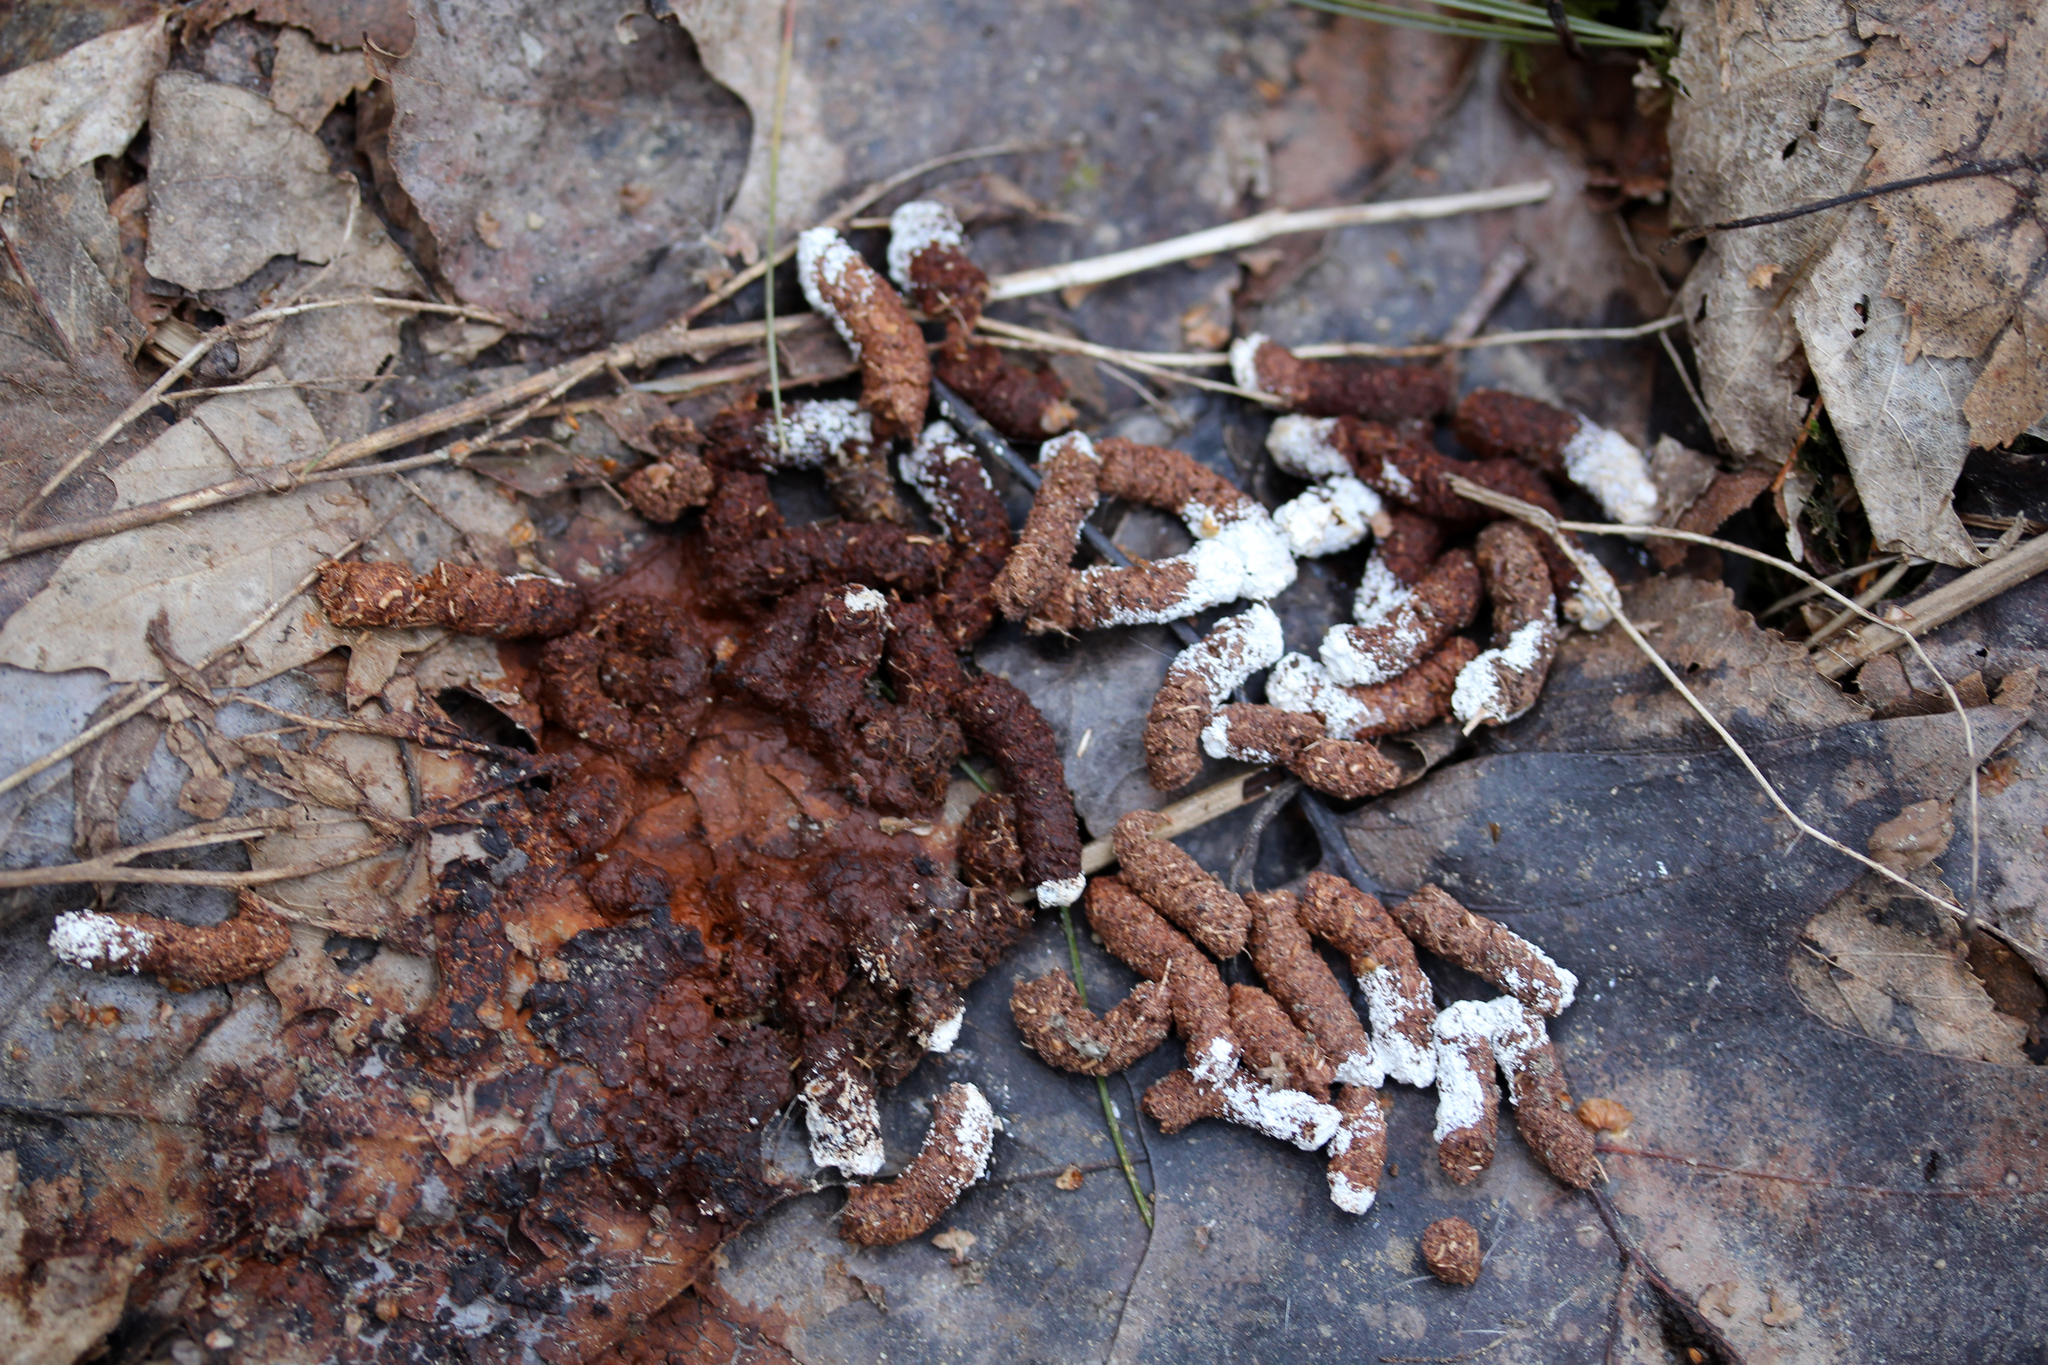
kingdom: Animalia
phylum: Chordata
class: Aves
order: Galliformes
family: Phasianidae
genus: Bonasa
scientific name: Bonasa umbellus
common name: Ruffed grouse
